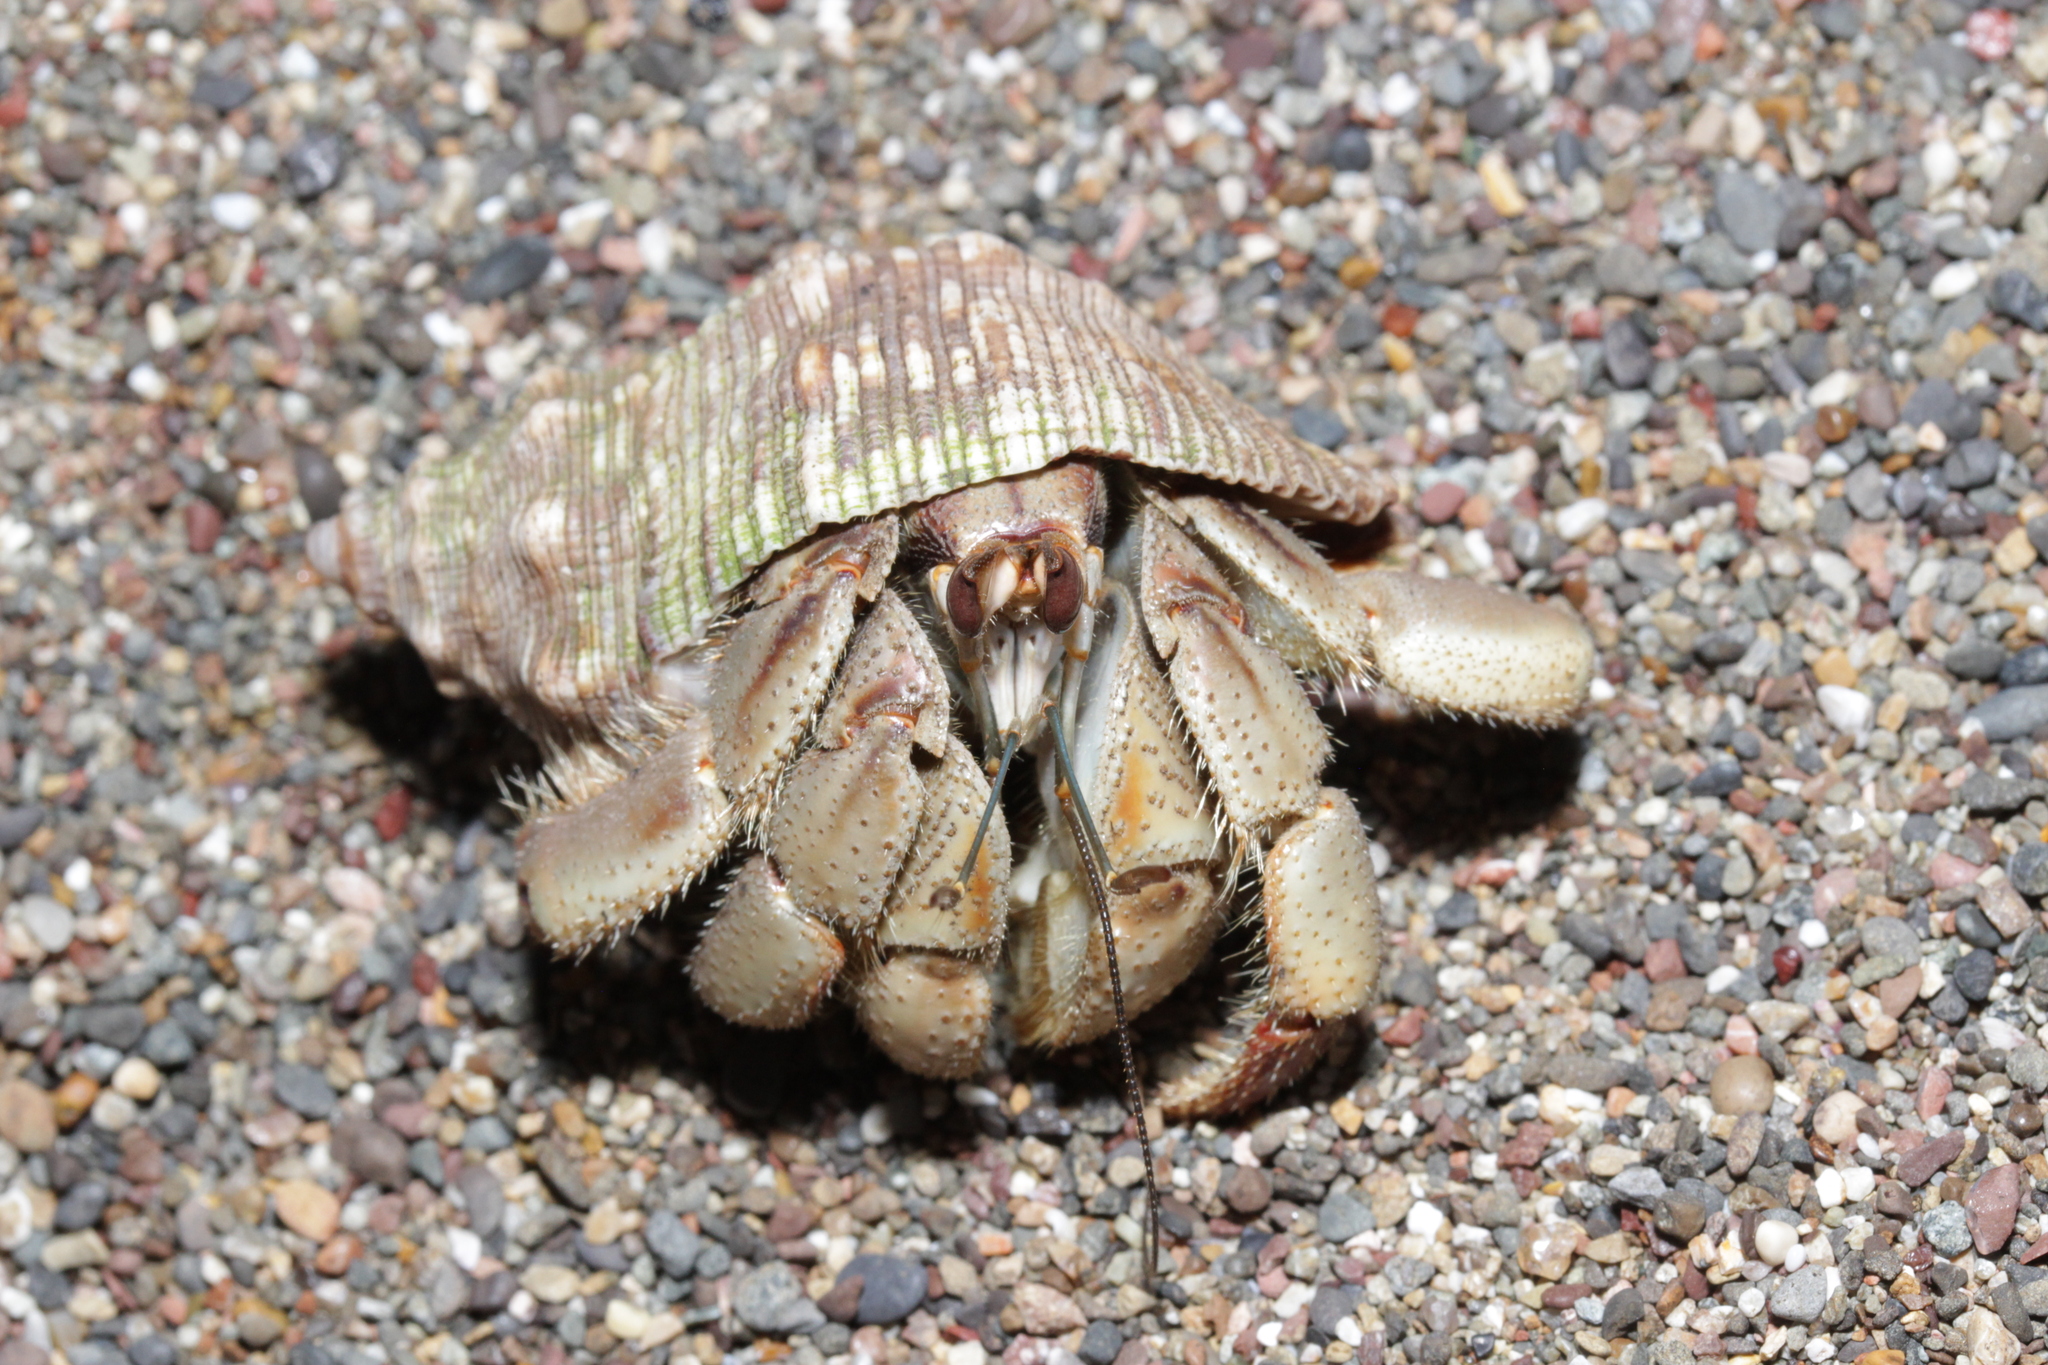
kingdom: Animalia
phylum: Arthropoda
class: Malacostraca
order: Decapoda
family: Coenobitidae
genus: Coenobita
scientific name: Coenobita compressus
